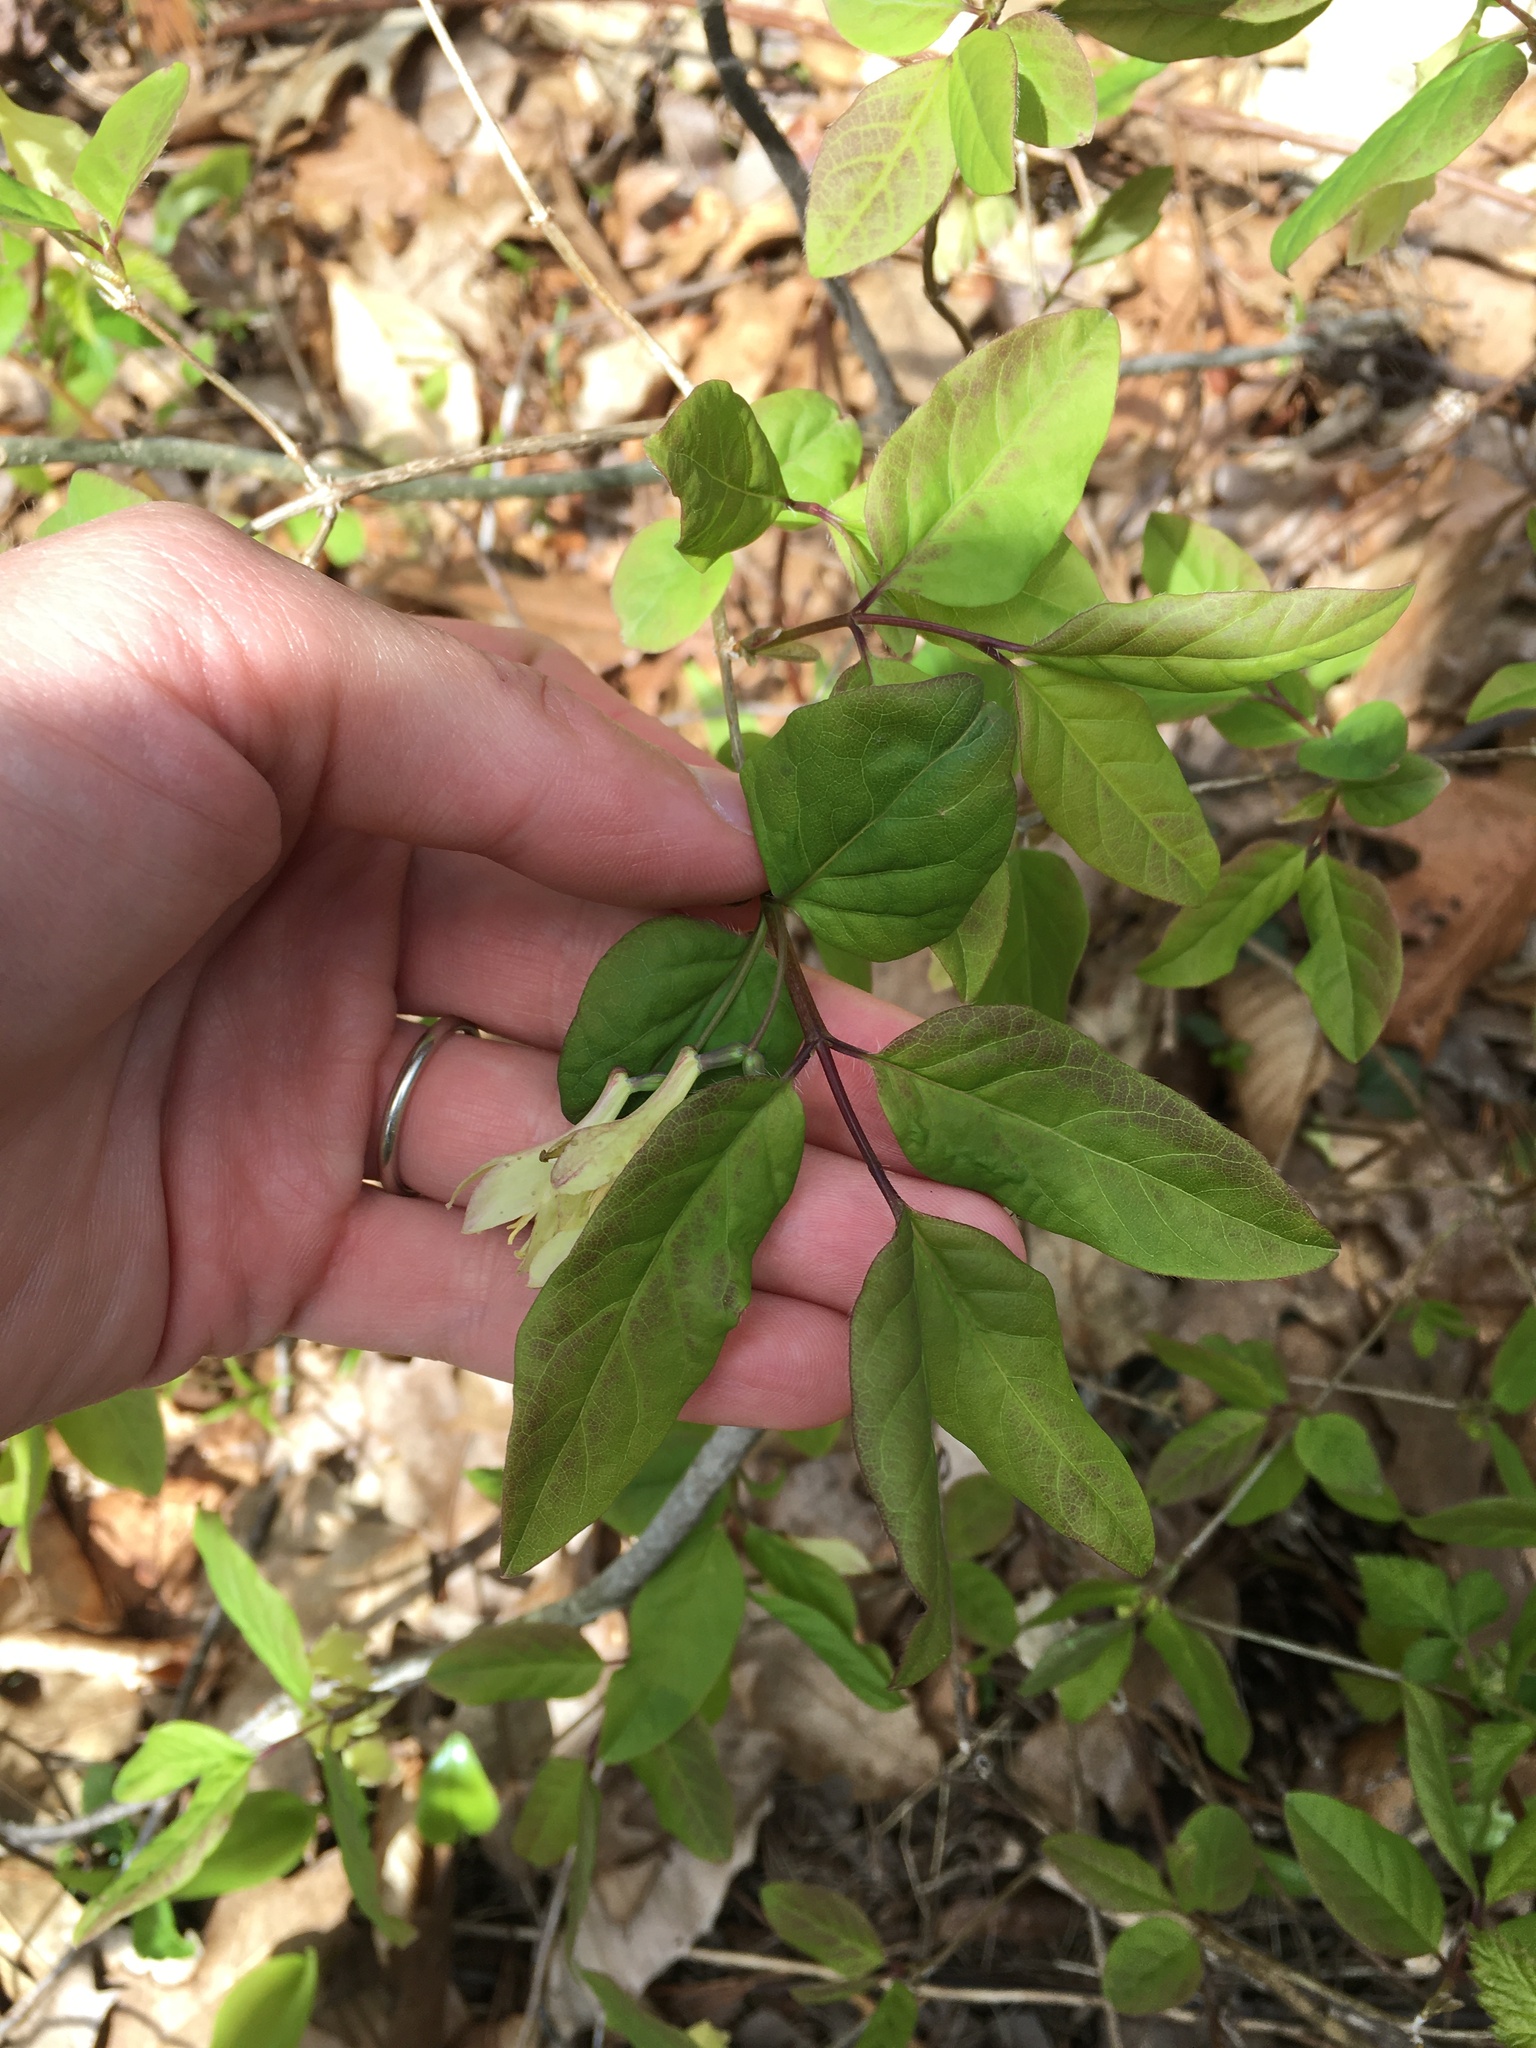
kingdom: Plantae
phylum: Tracheophyta
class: Magnoliopsida
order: Dipsacales
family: Caprifoliaceae
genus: Lonicera
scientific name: Lonicera canadensis
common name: American fly-honeysuckle
